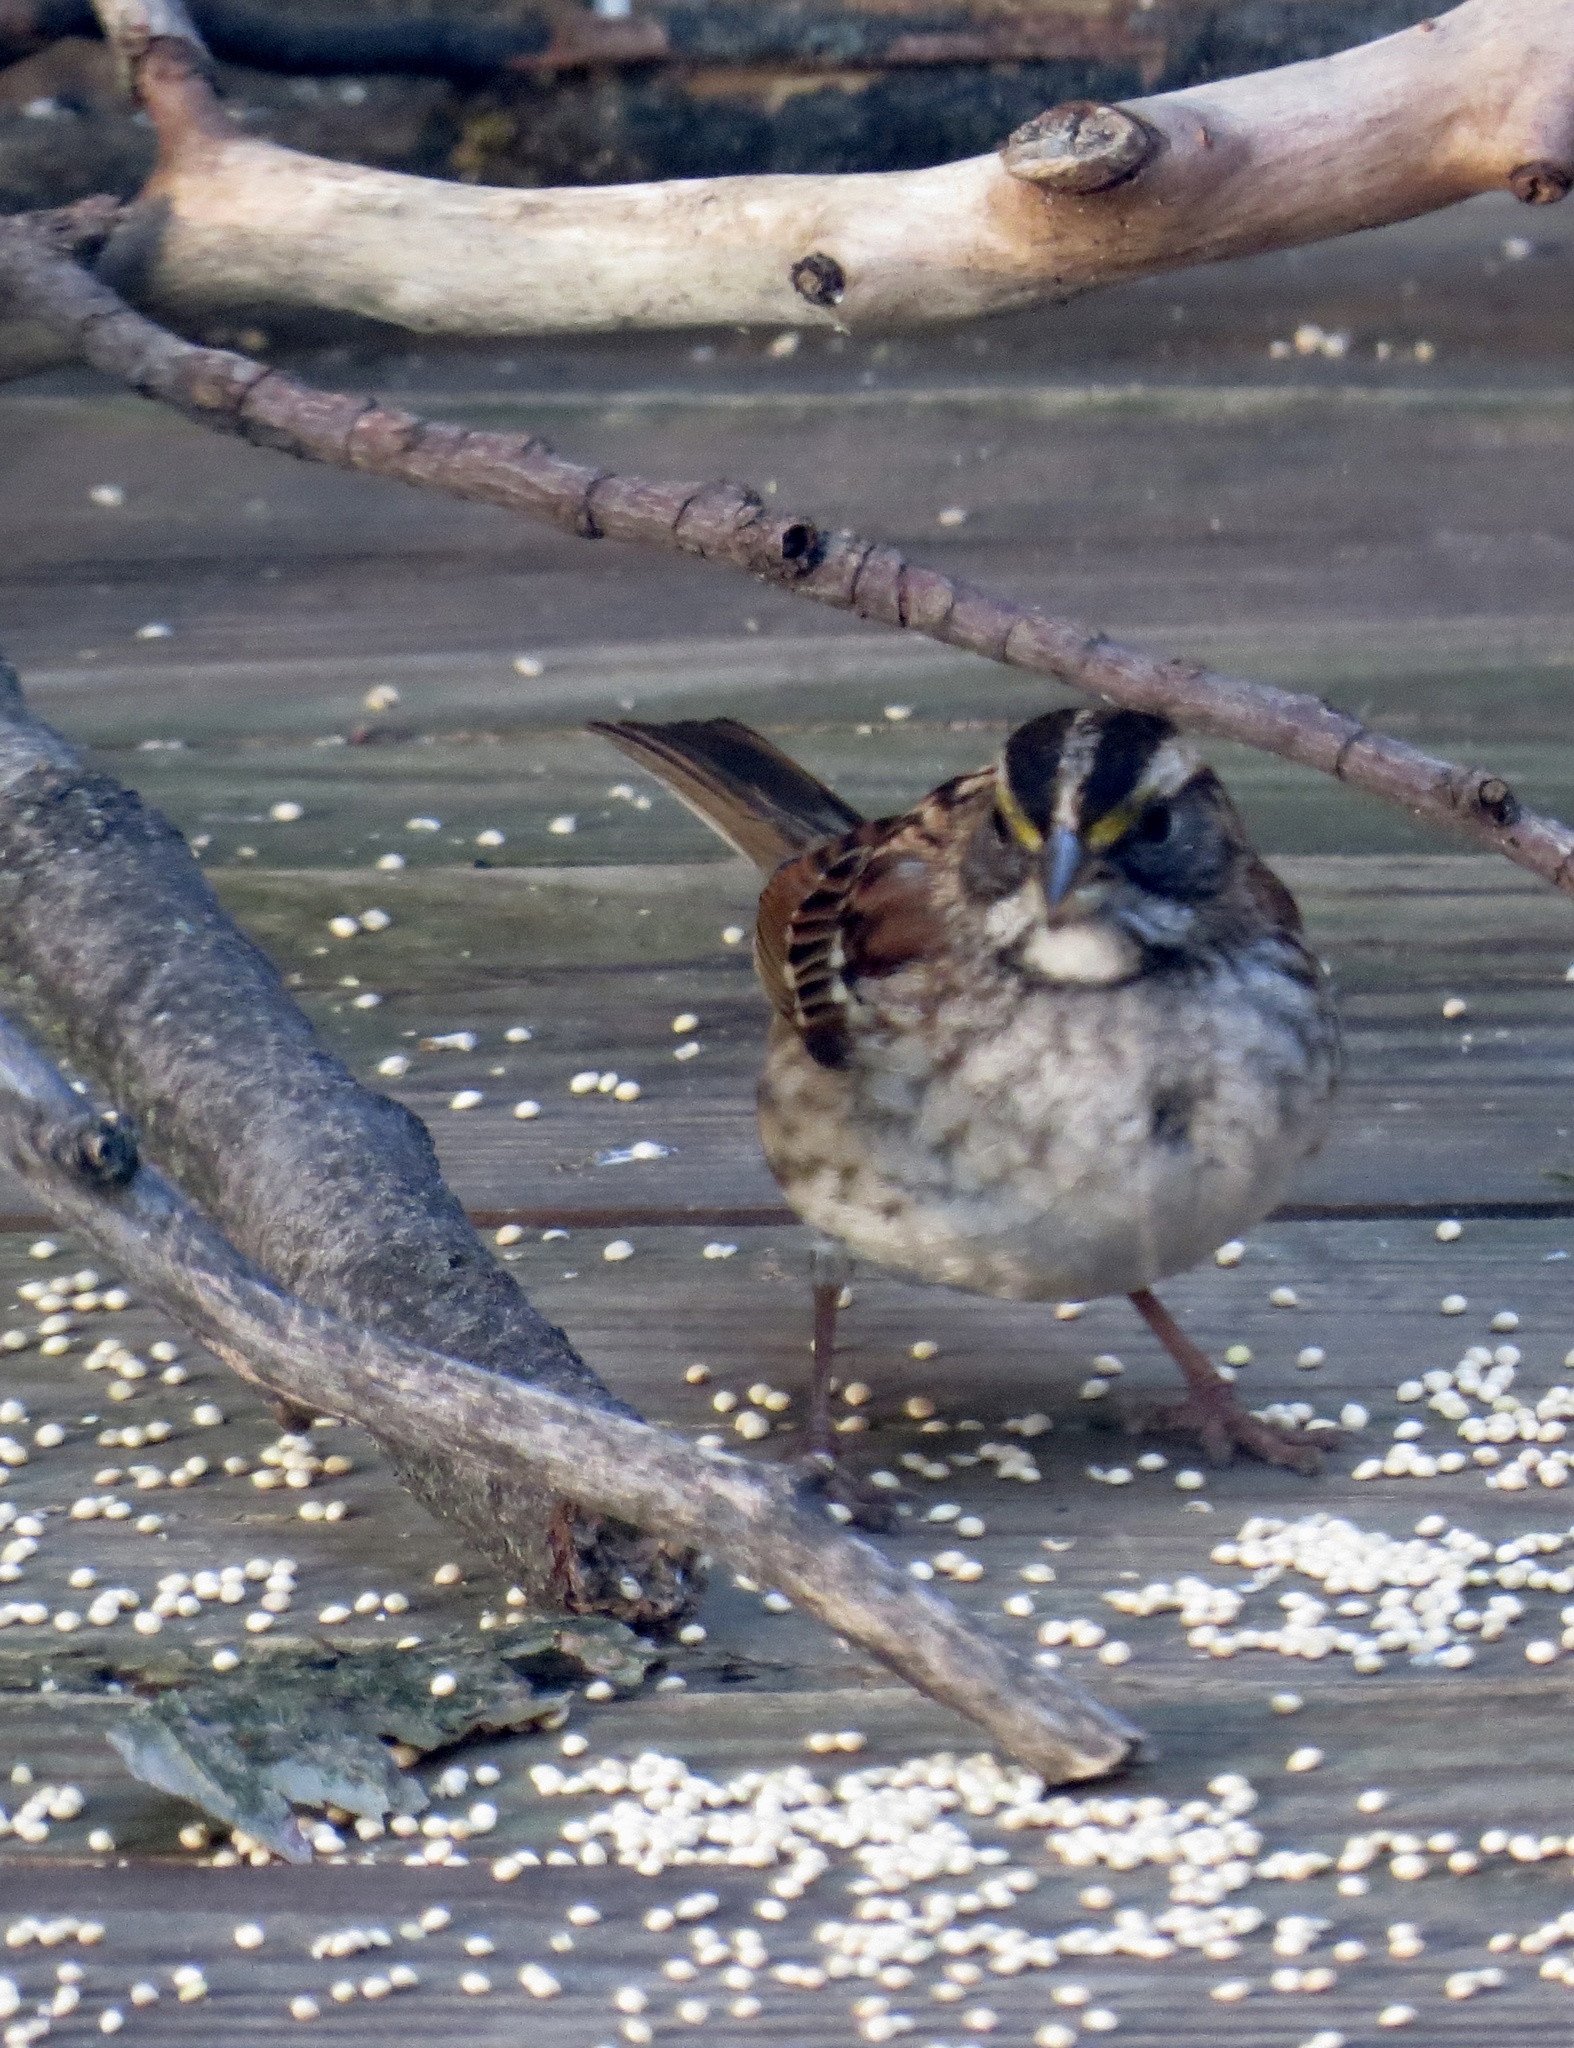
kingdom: Animalia
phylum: Chordata
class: Aves
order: Passeriformes
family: Passerellidae
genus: Zonotrichia
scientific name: Zonotrichia albicollis
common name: White-throated sparrow
